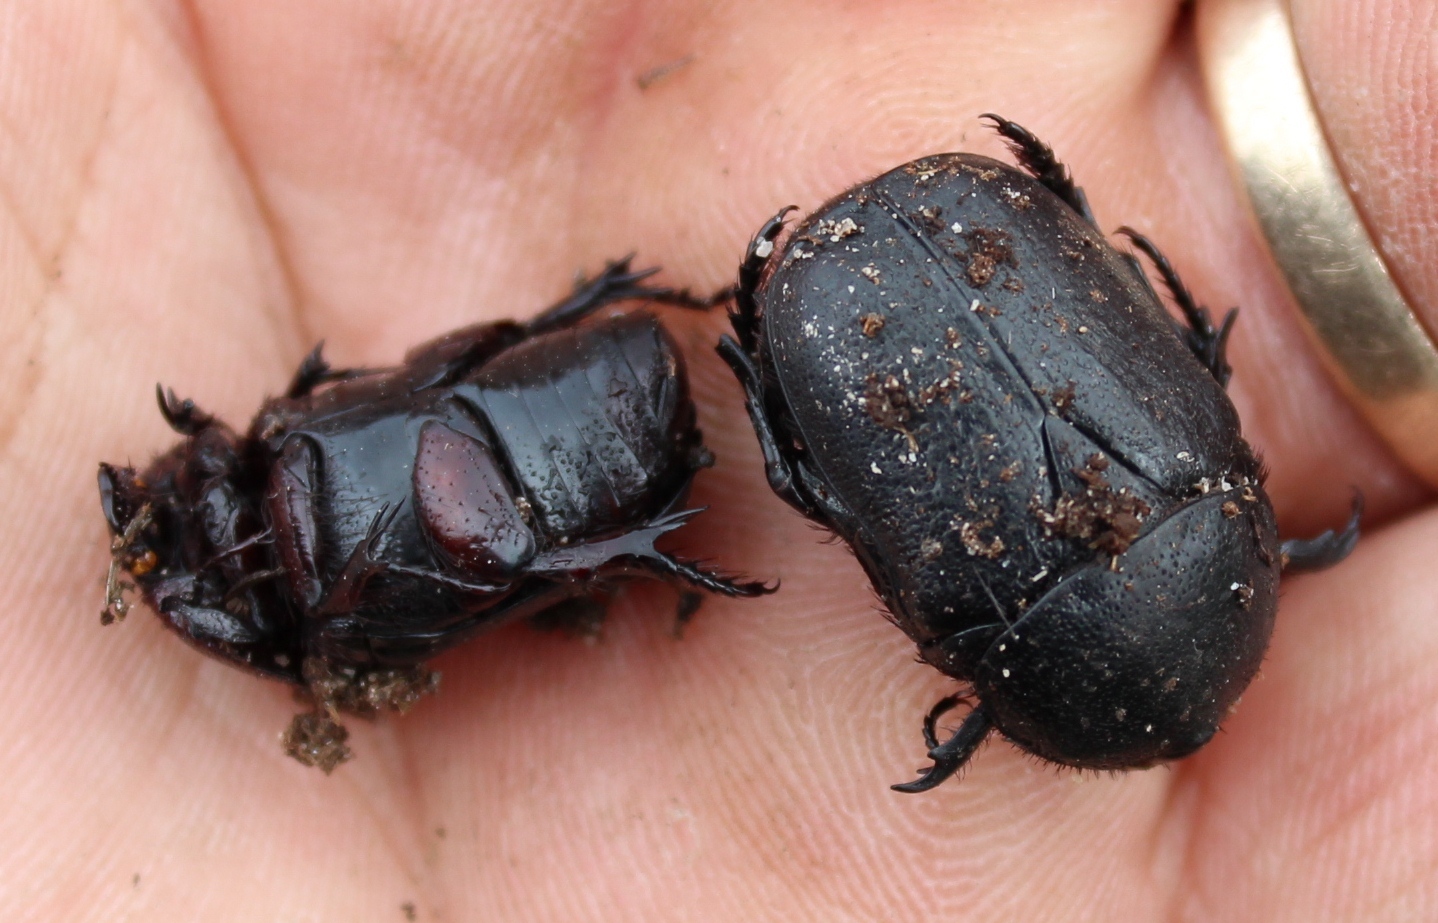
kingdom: Animalia
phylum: Arthropoda
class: Insecta
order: Coleoptera
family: Scarabaeidae
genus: Rhinocoeta
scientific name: Rhinocoeta sanguinipes
